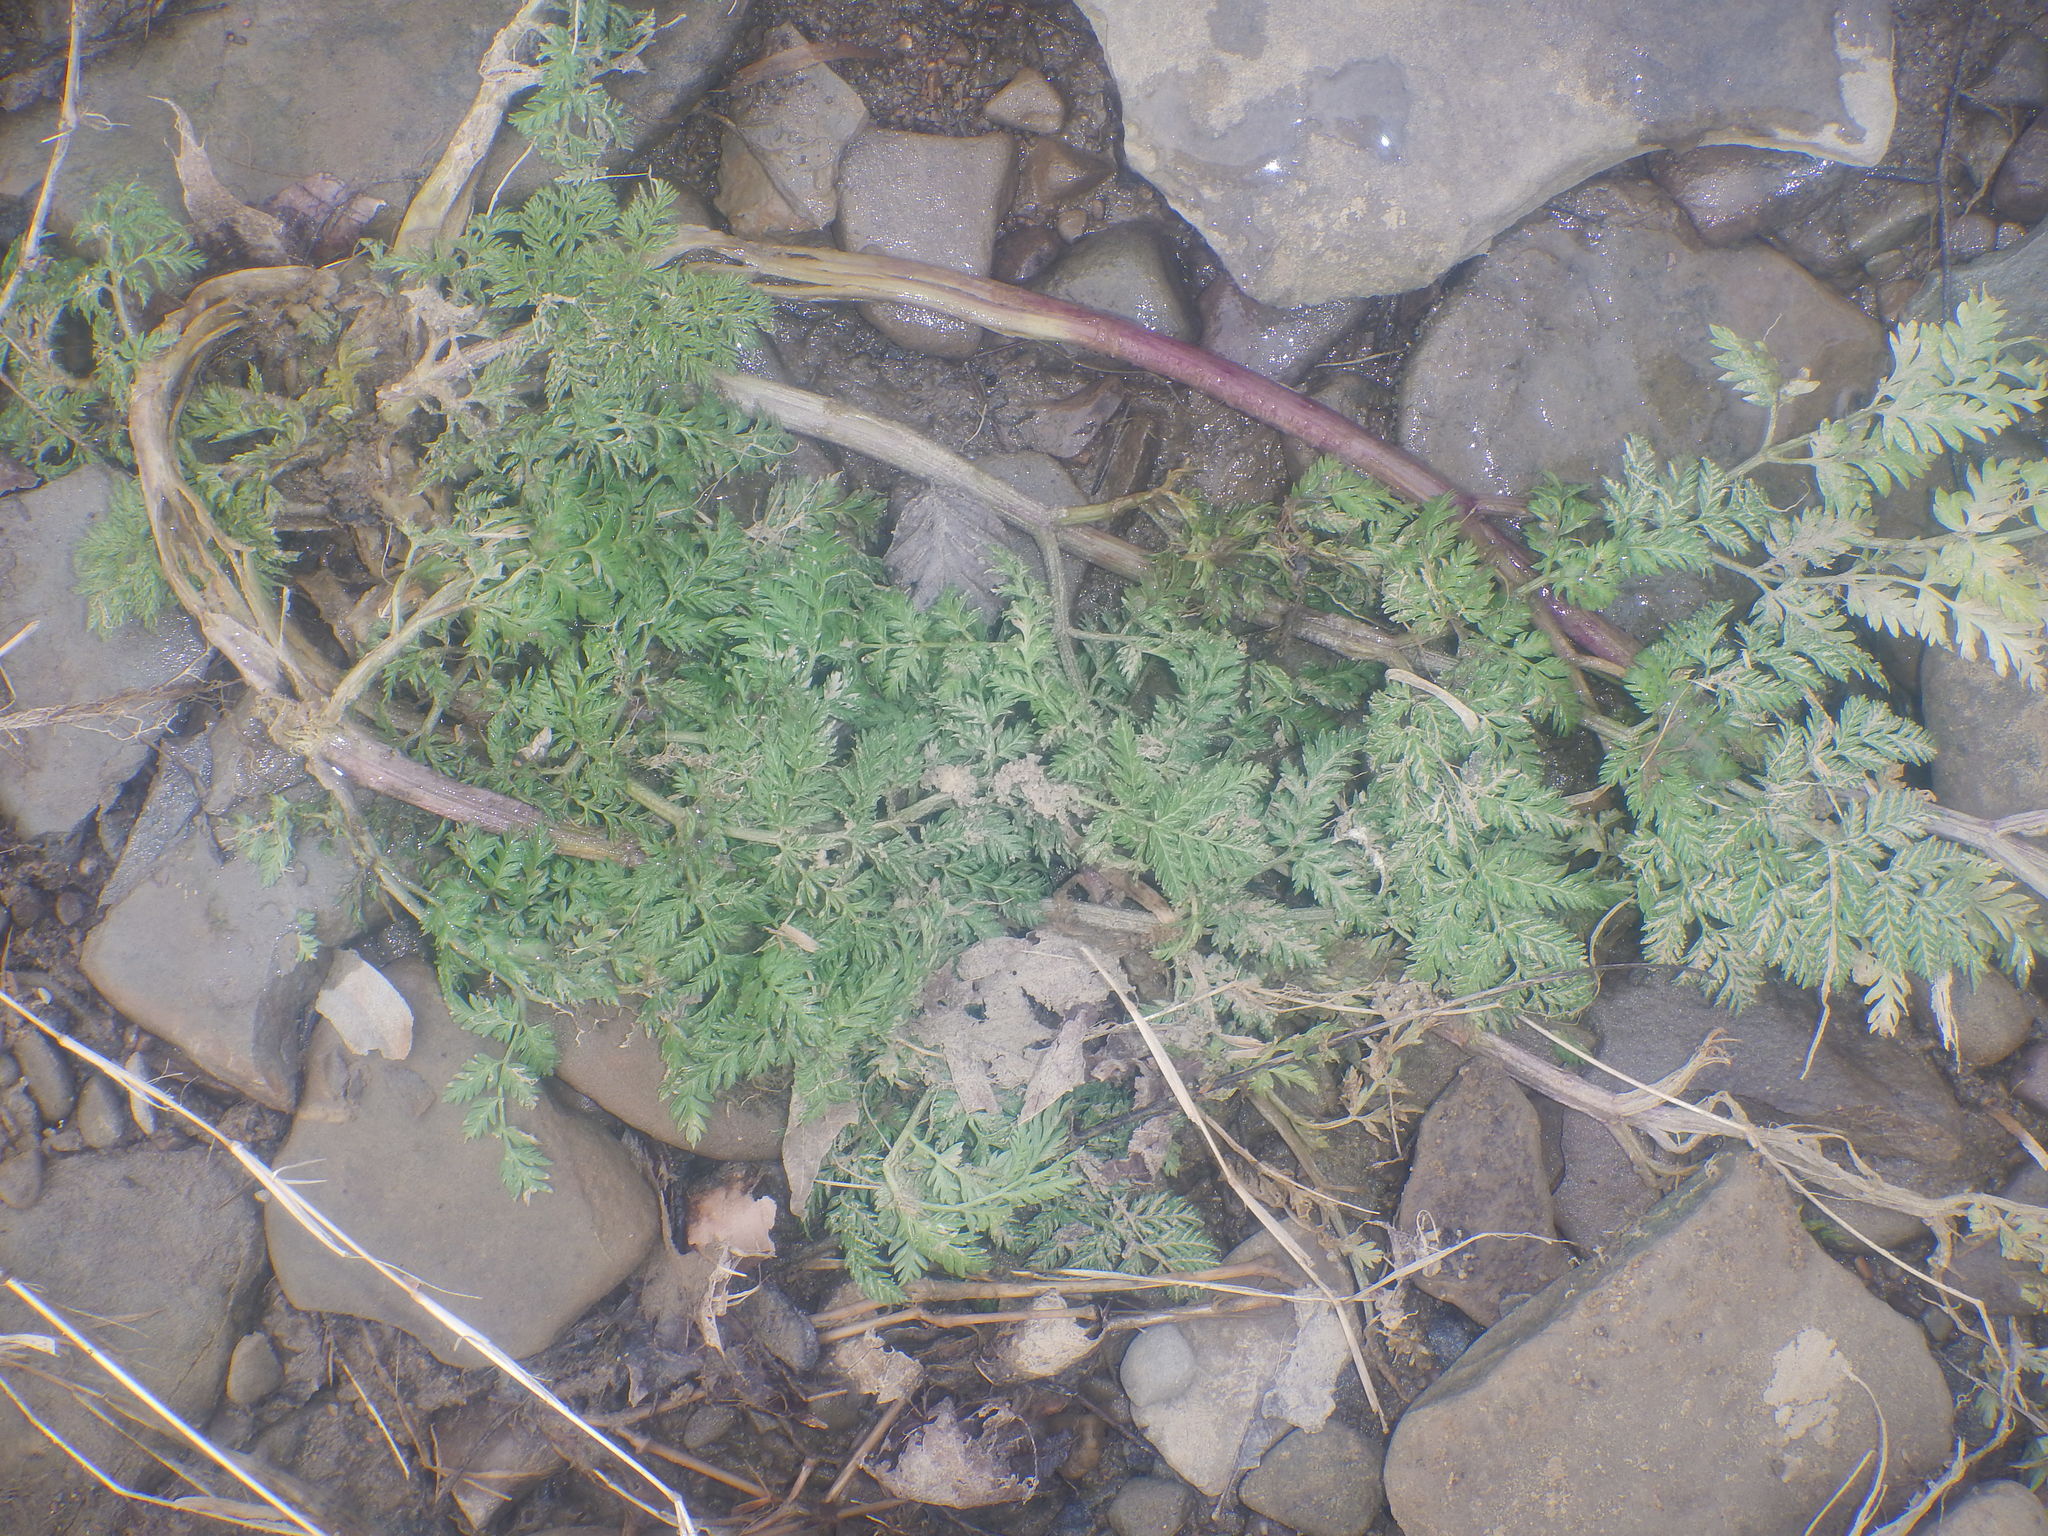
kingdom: Plantae
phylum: Tracheophyta
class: Magnoliopsida
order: Apiales
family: Apiaceae
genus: Conium
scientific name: Conium maculatum
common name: Hemlock
